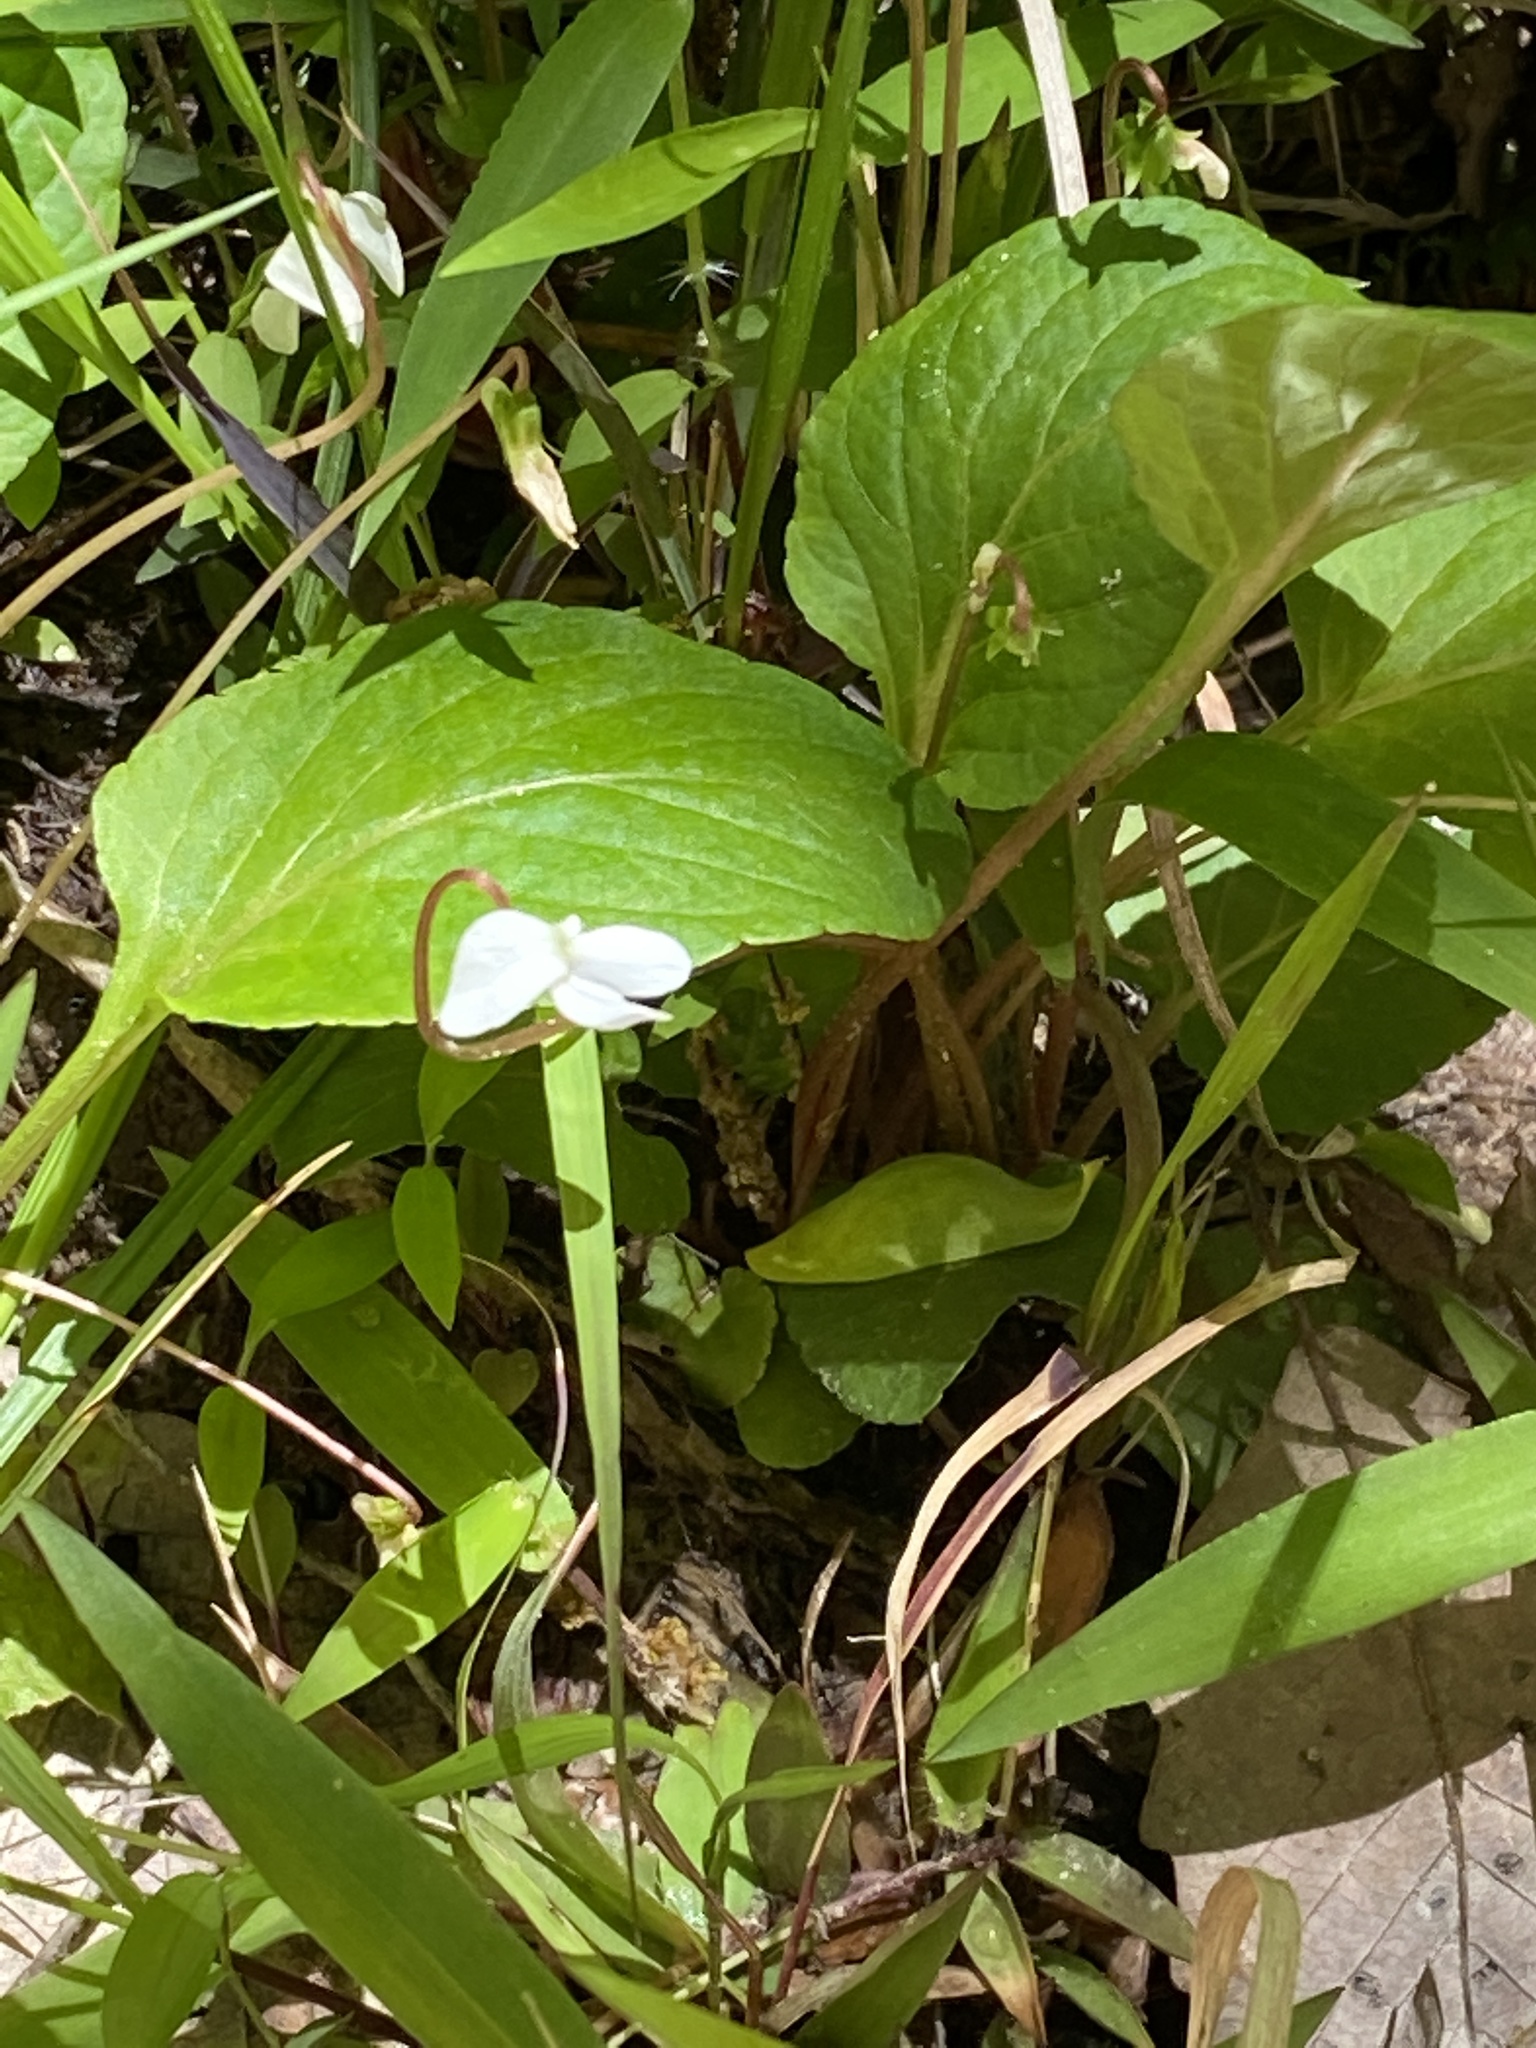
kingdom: Plantae
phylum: Tracheophyta
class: Magnoliopsida
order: Malpighiales
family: Violaceae
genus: Viola
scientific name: Viola primulifolia
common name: Primrose-leaf violet
